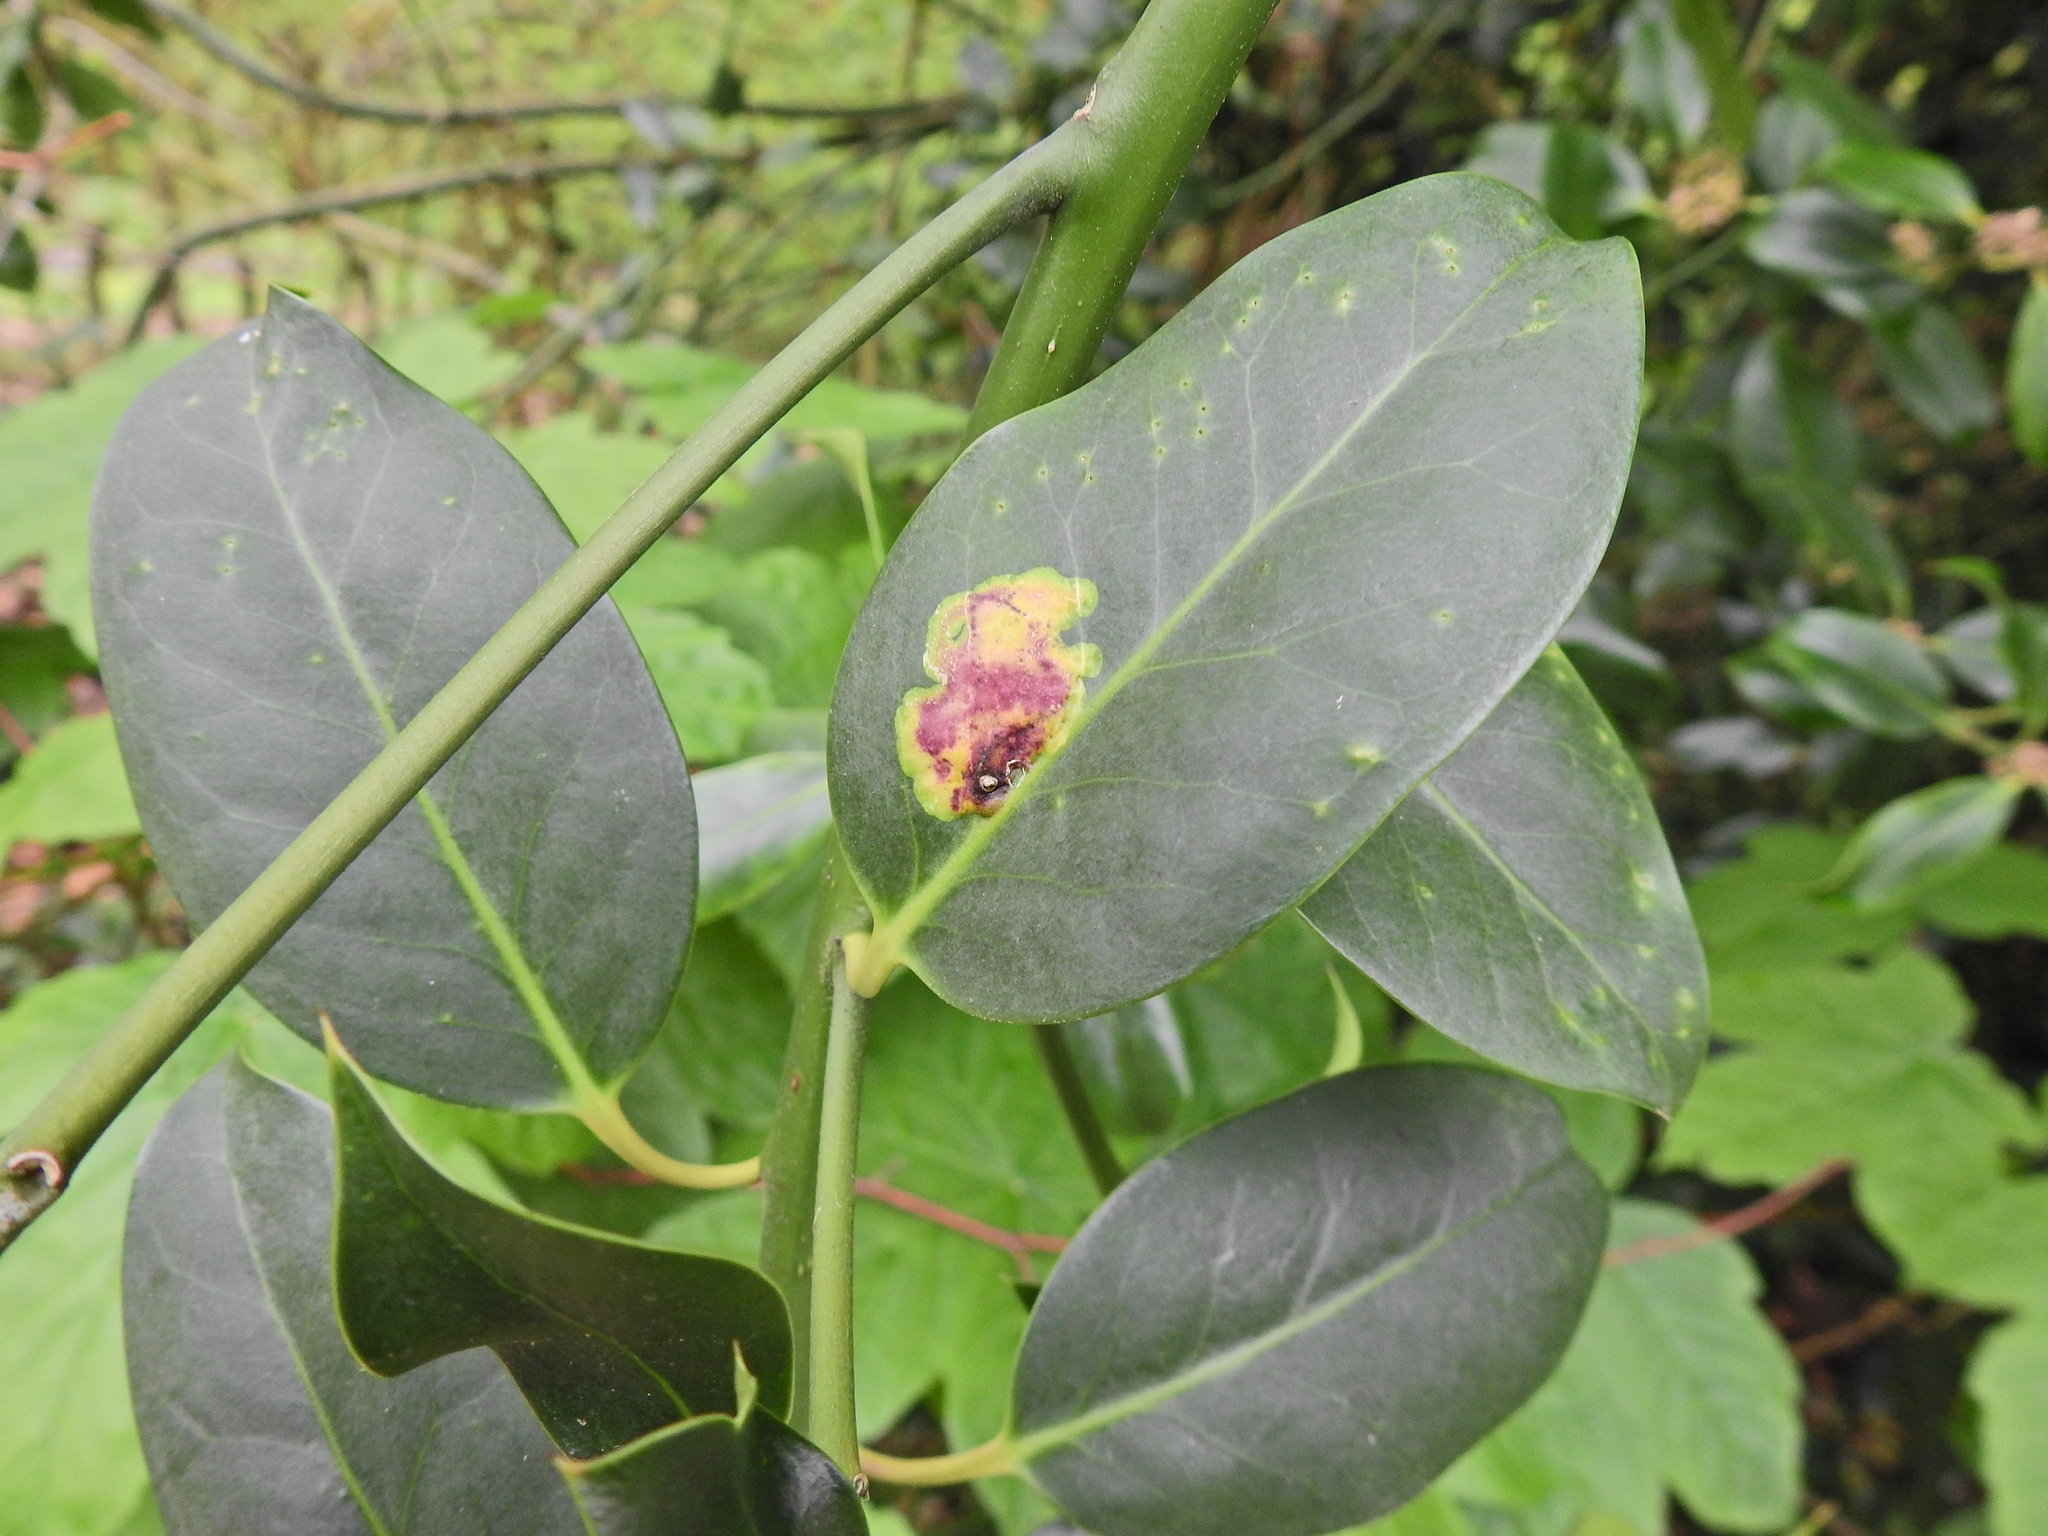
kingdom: Animalia
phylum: Arthropoda
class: Insecta
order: Diptera
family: Agromyzidae
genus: Phytomyza
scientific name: Phytomyza ilicis
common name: Holly leafminer
